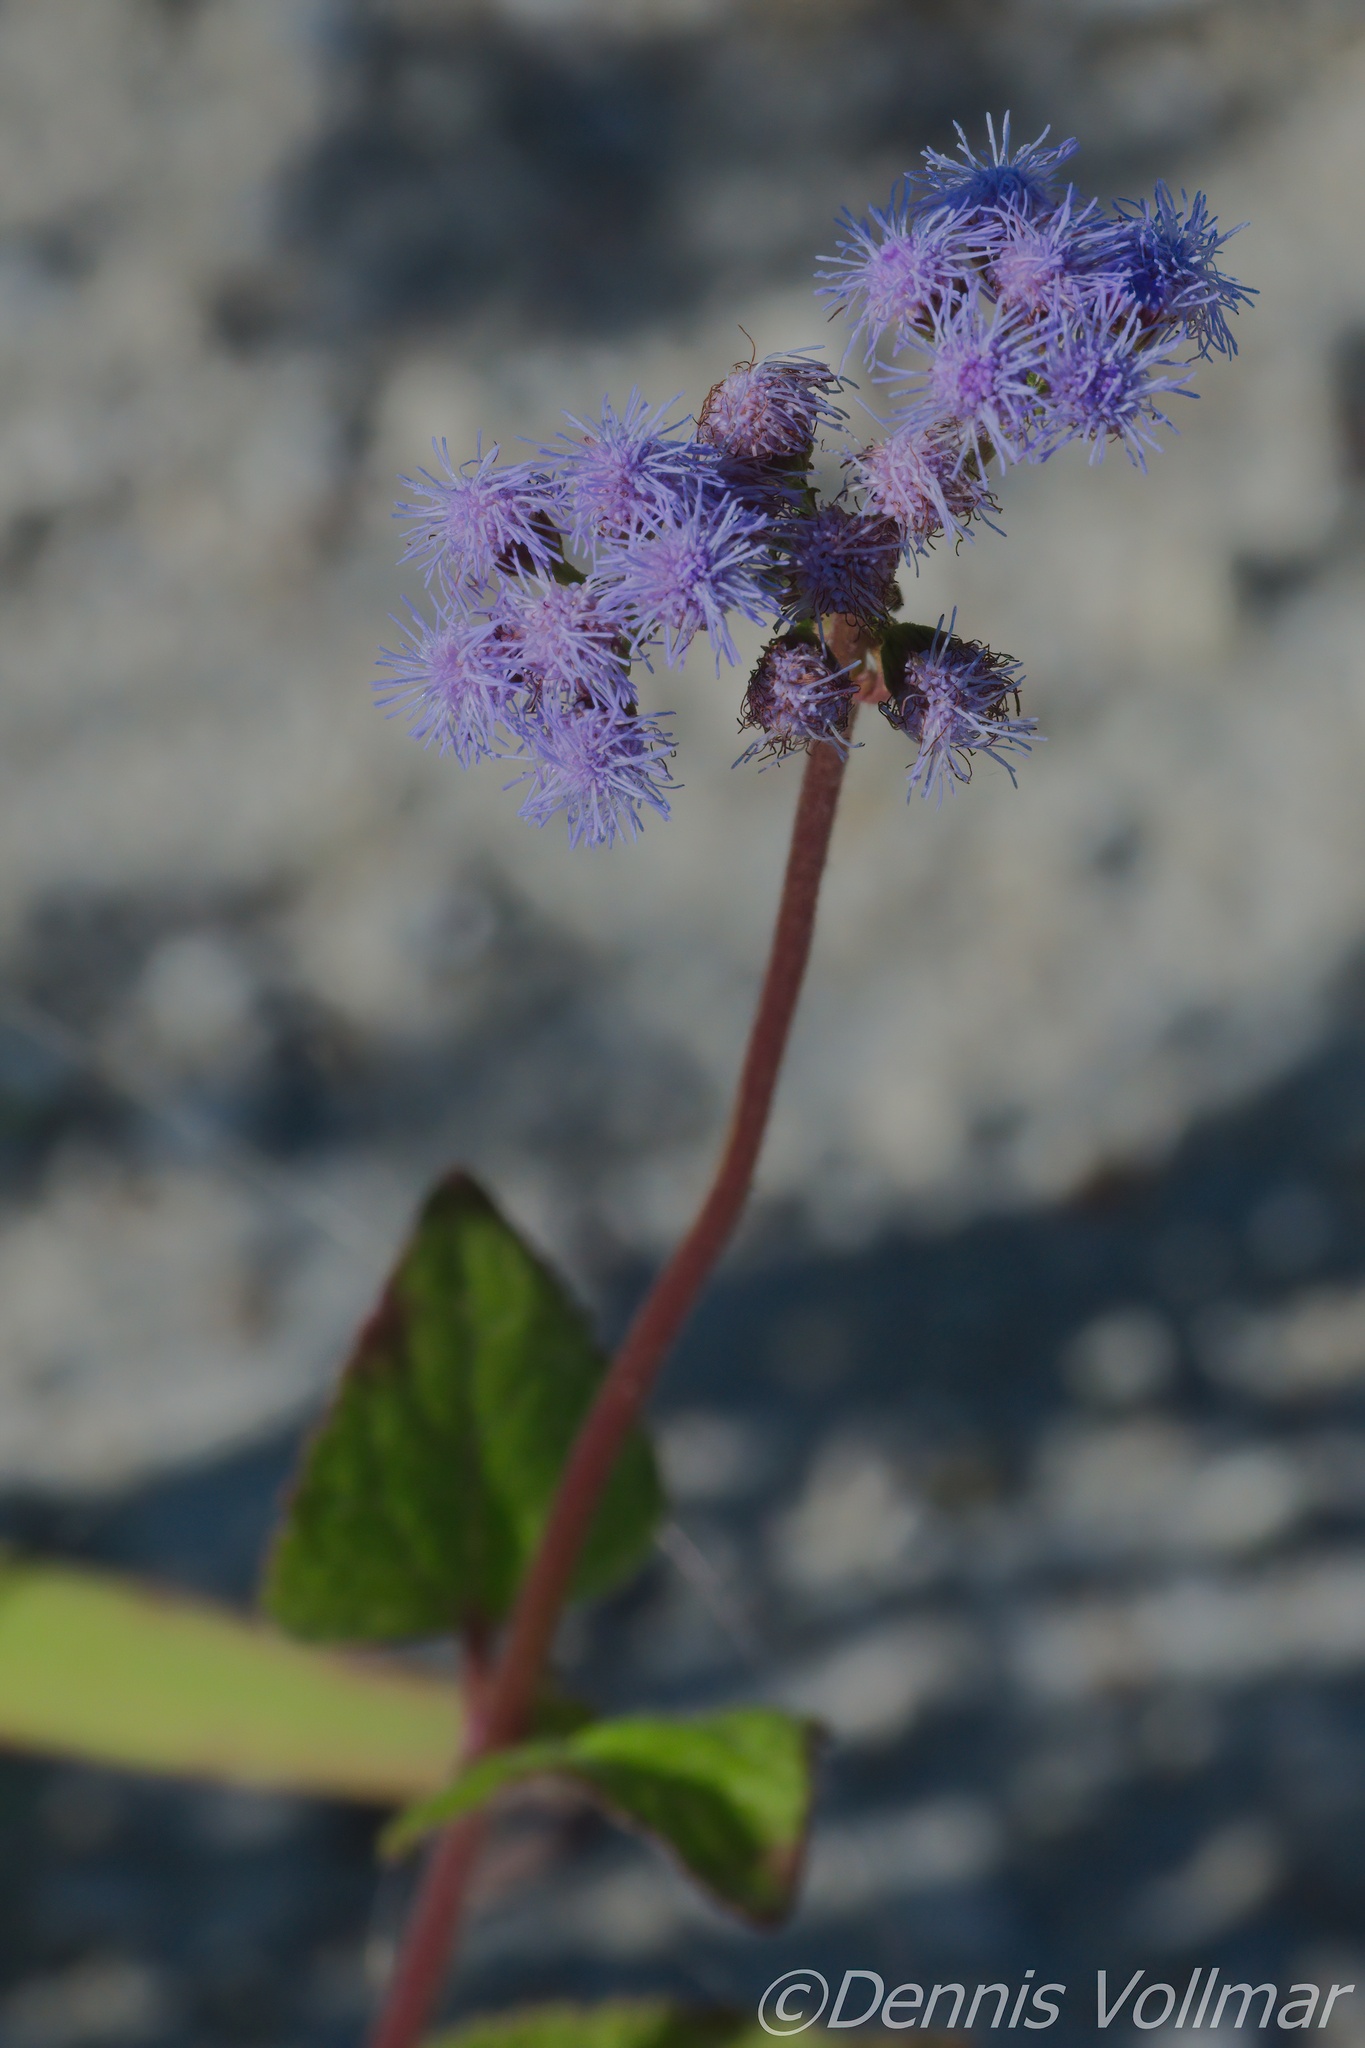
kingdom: Plantae
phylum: Tracheophyta
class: Magnoliopsida
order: Asterales
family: Asteraceae
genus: Conoclinium
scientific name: Conoclinium coelestinum
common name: Blue mistflower
